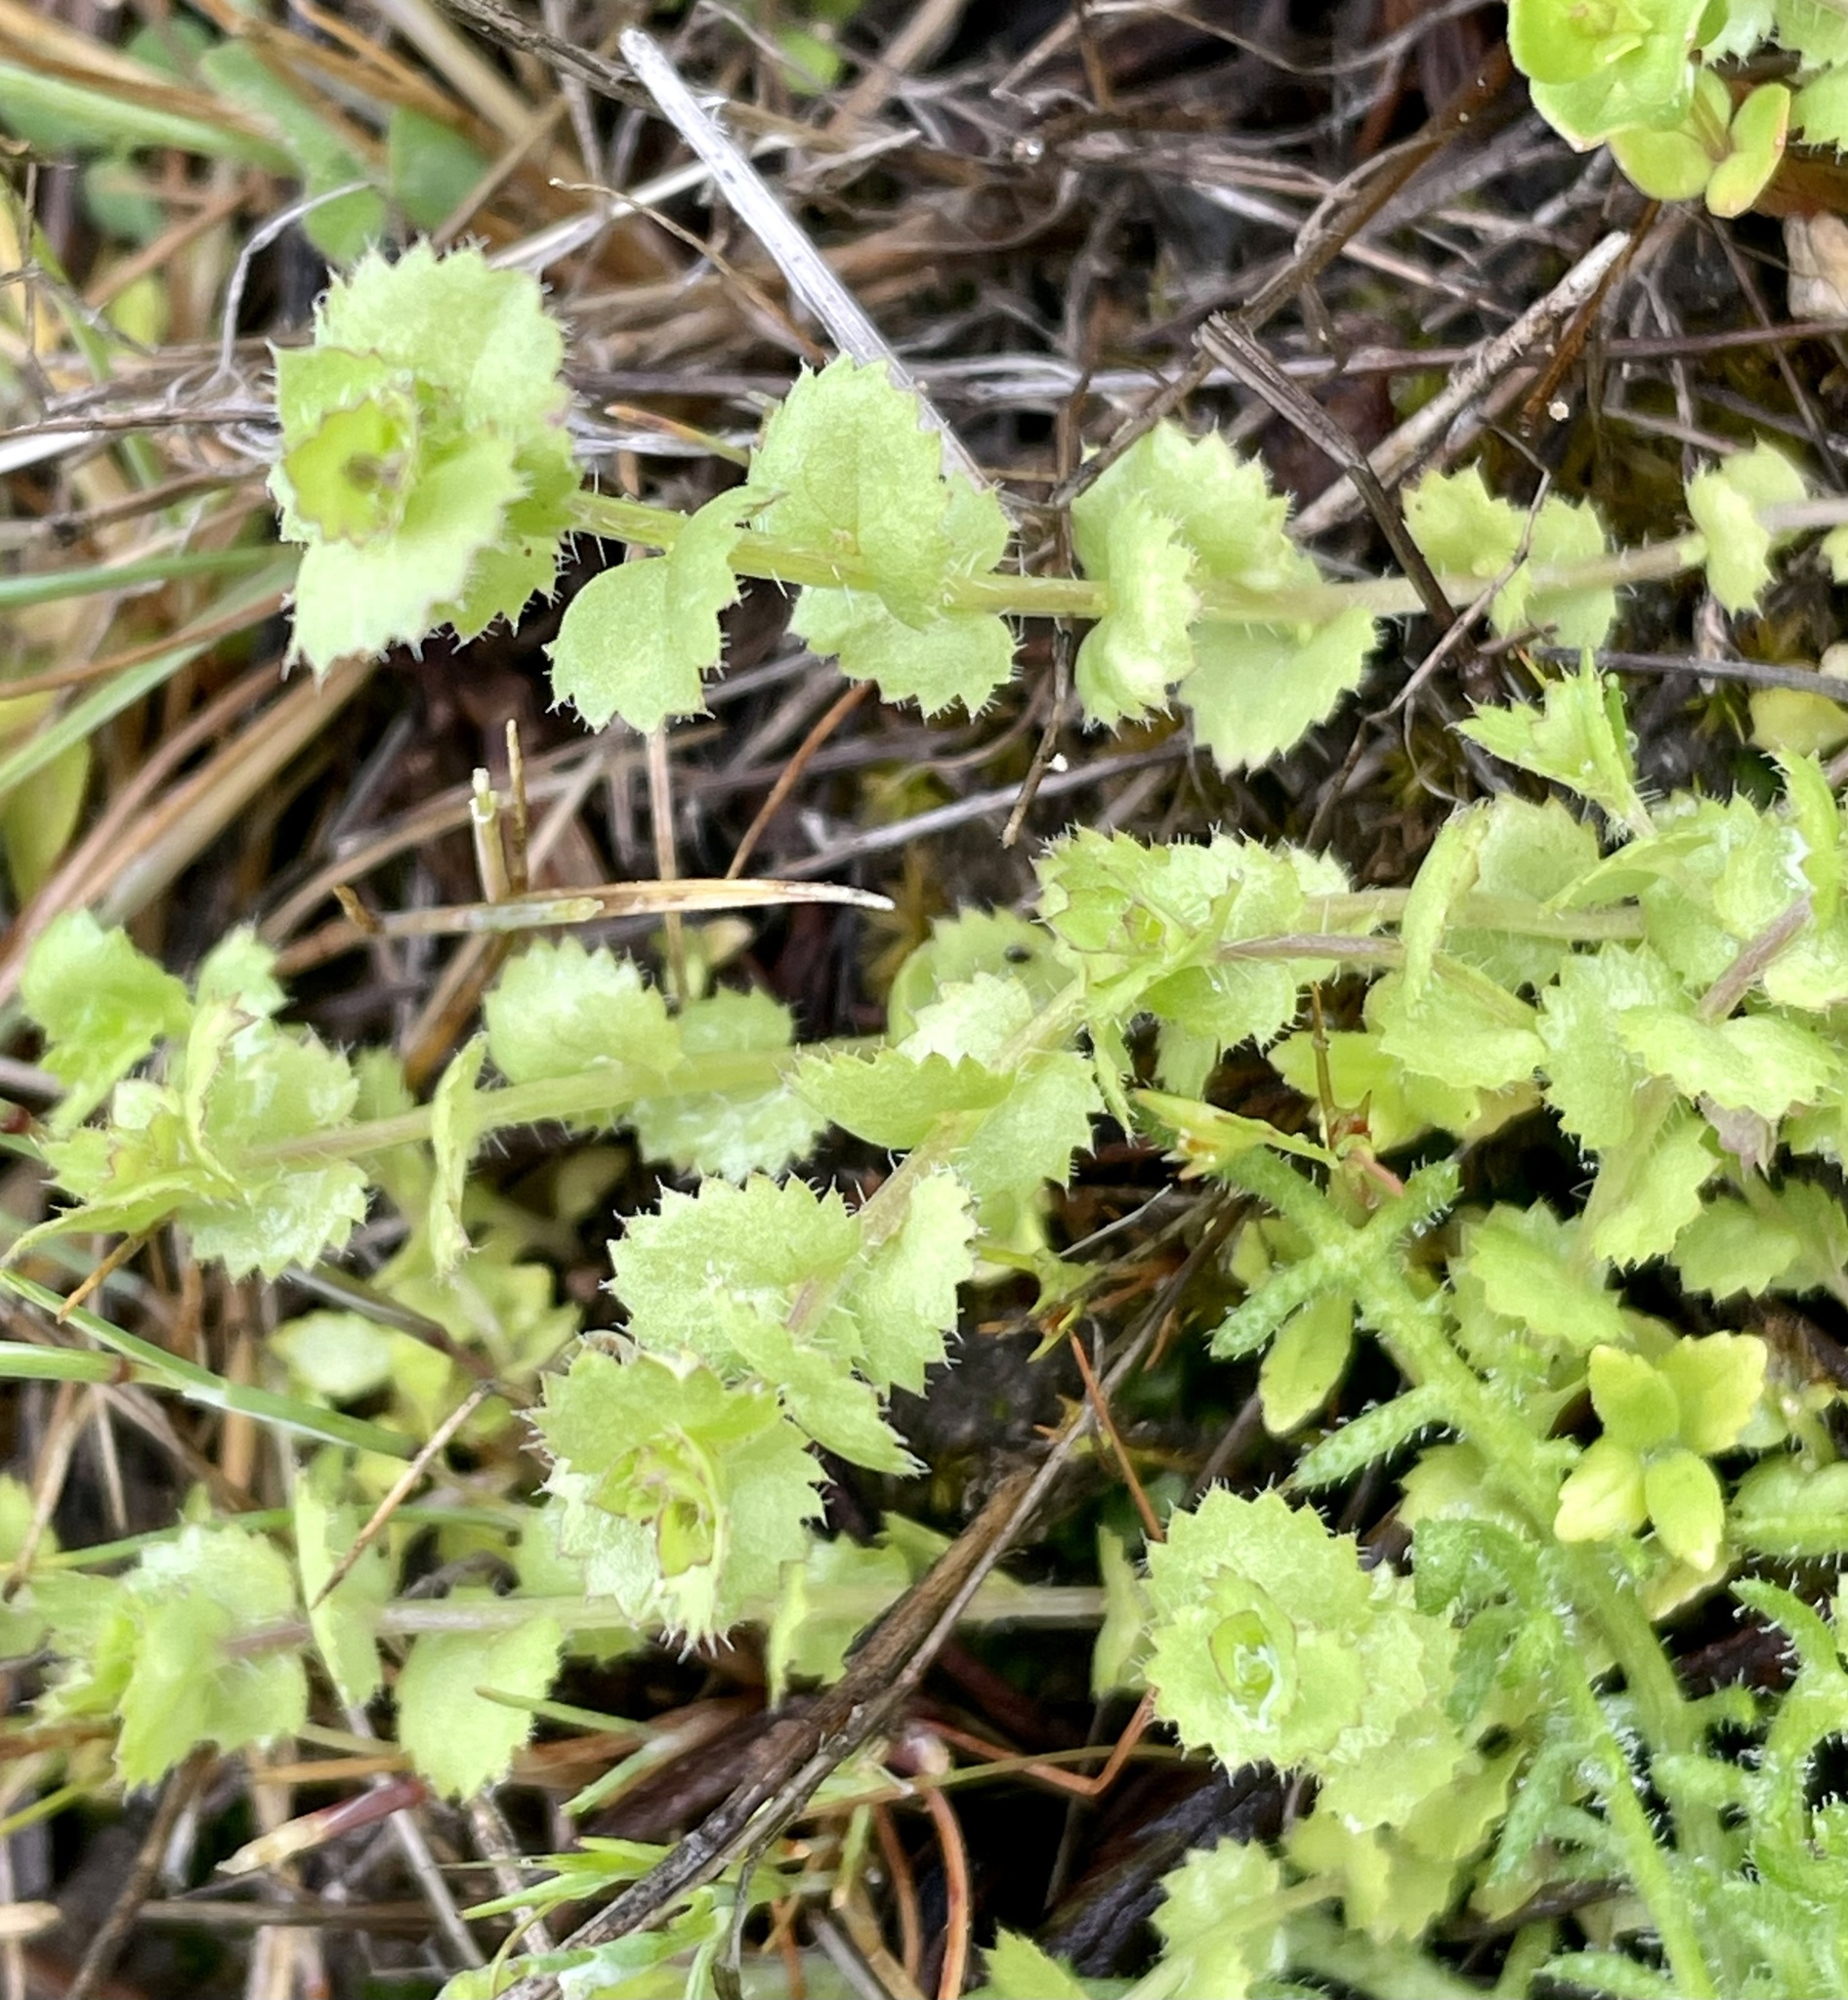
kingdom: Plantae
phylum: Tracheophyta
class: Magnoliopsida
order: Asterales
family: Campanulaceae
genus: Heterocodon
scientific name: Heterocodon rariflorum
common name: Rareflower heterocodon
